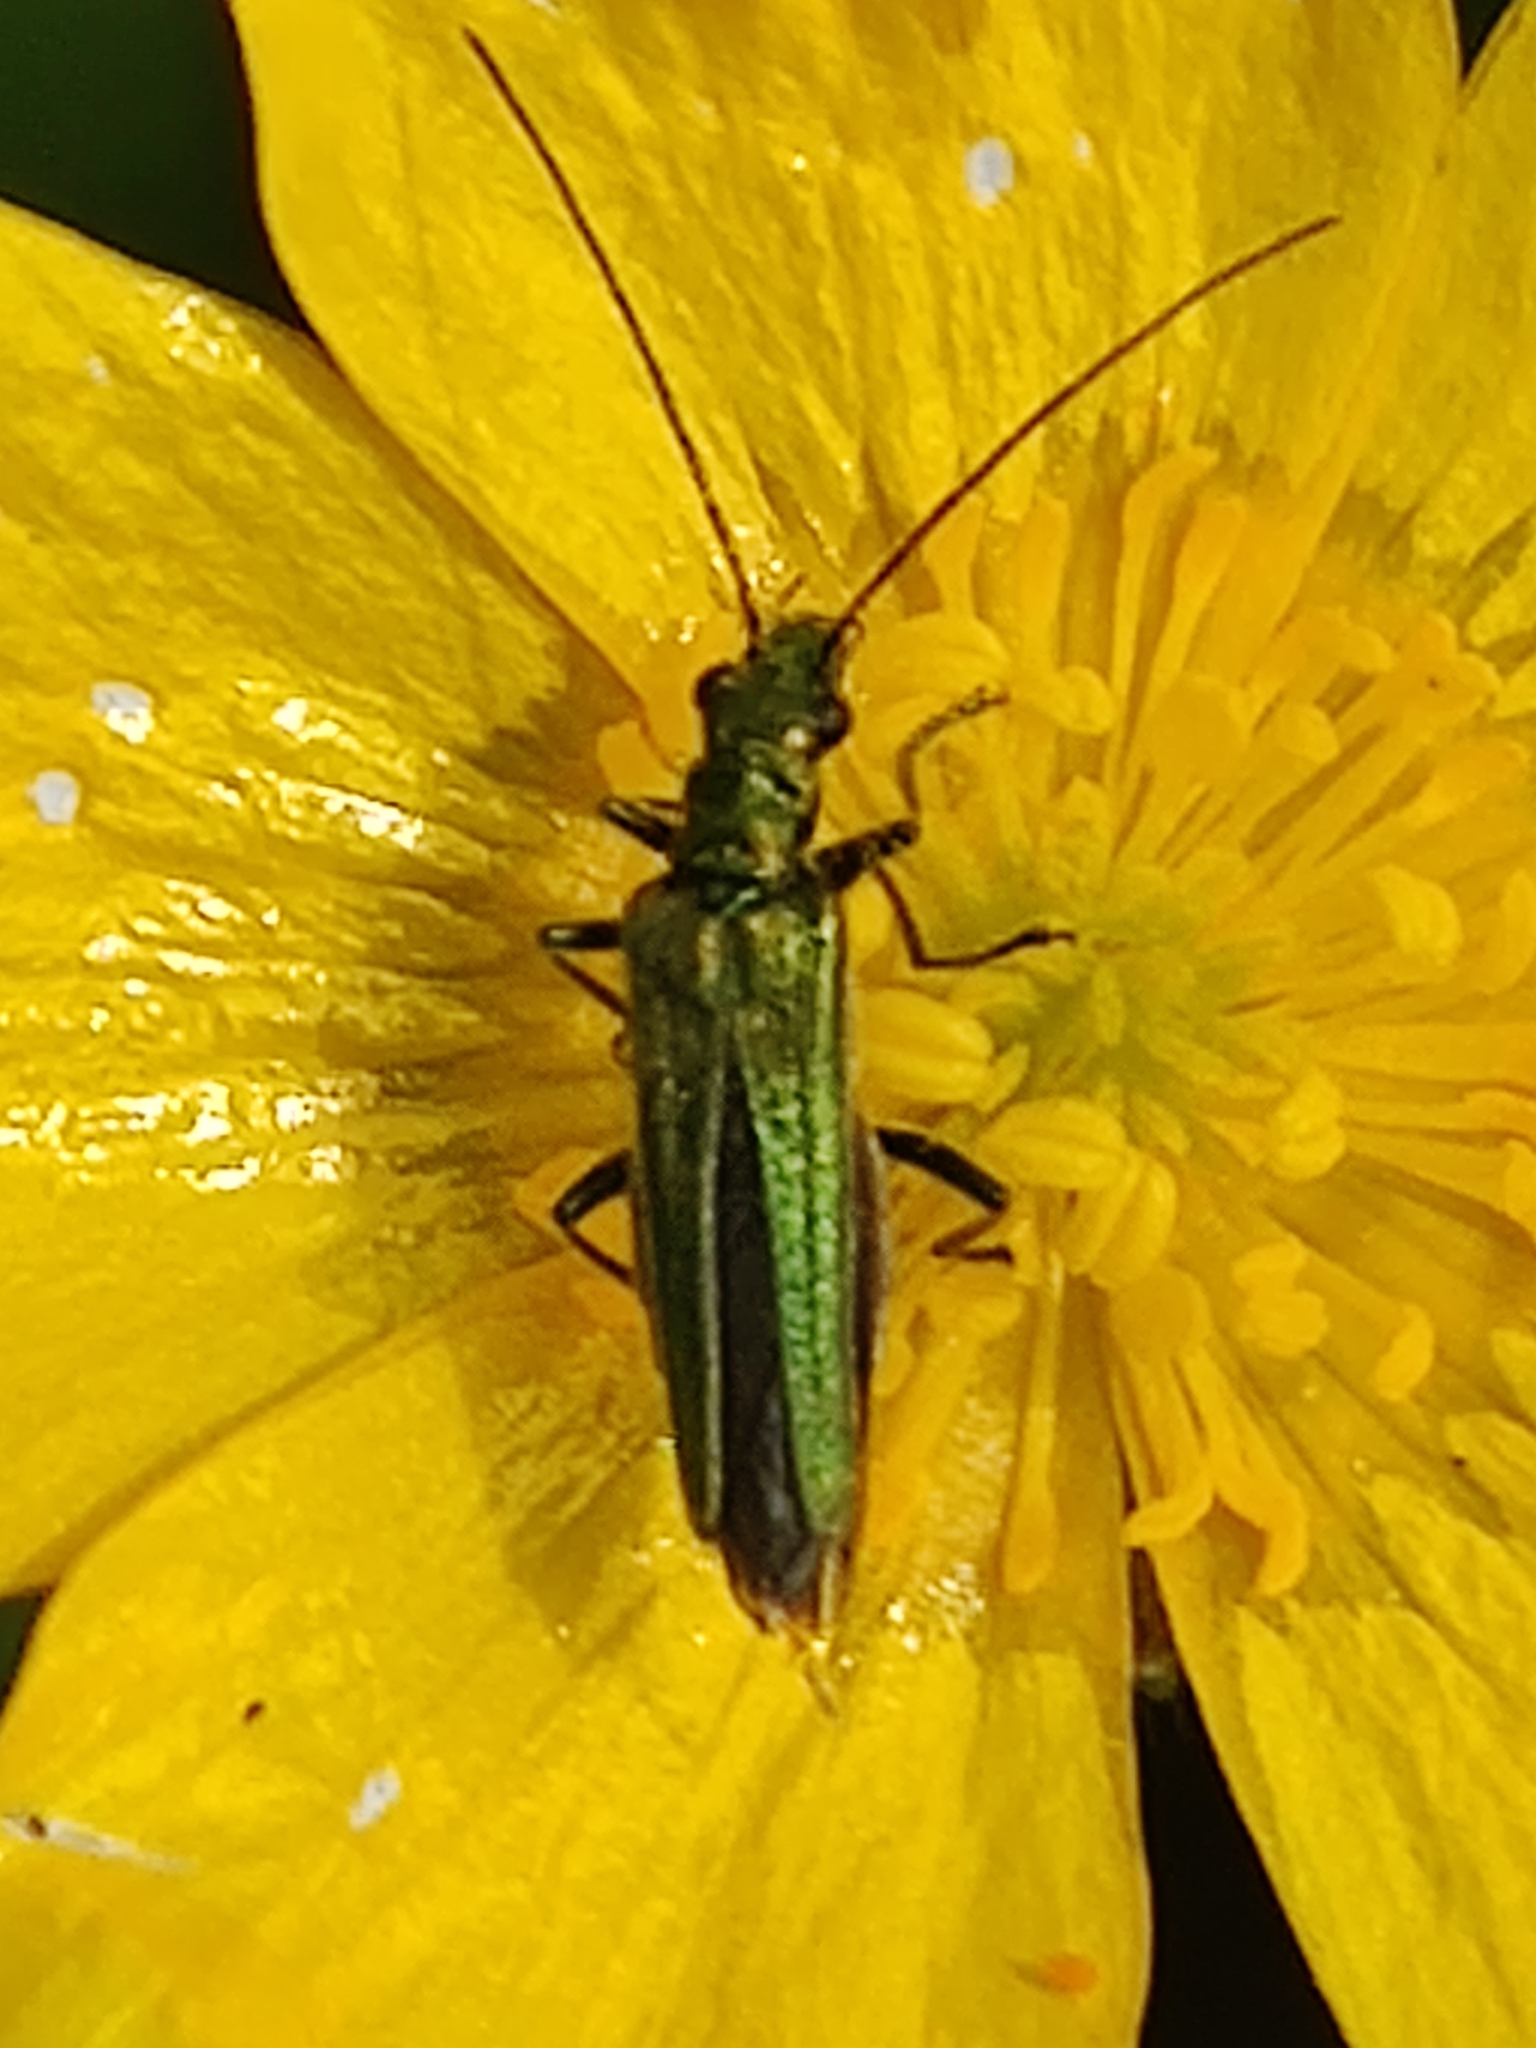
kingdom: Animalia
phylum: Arthropoda
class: Insecta
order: Coleoptera
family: Oedemeridae
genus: Oedemera
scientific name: Oedemera nobilis
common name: Swollen-thighed beetle
